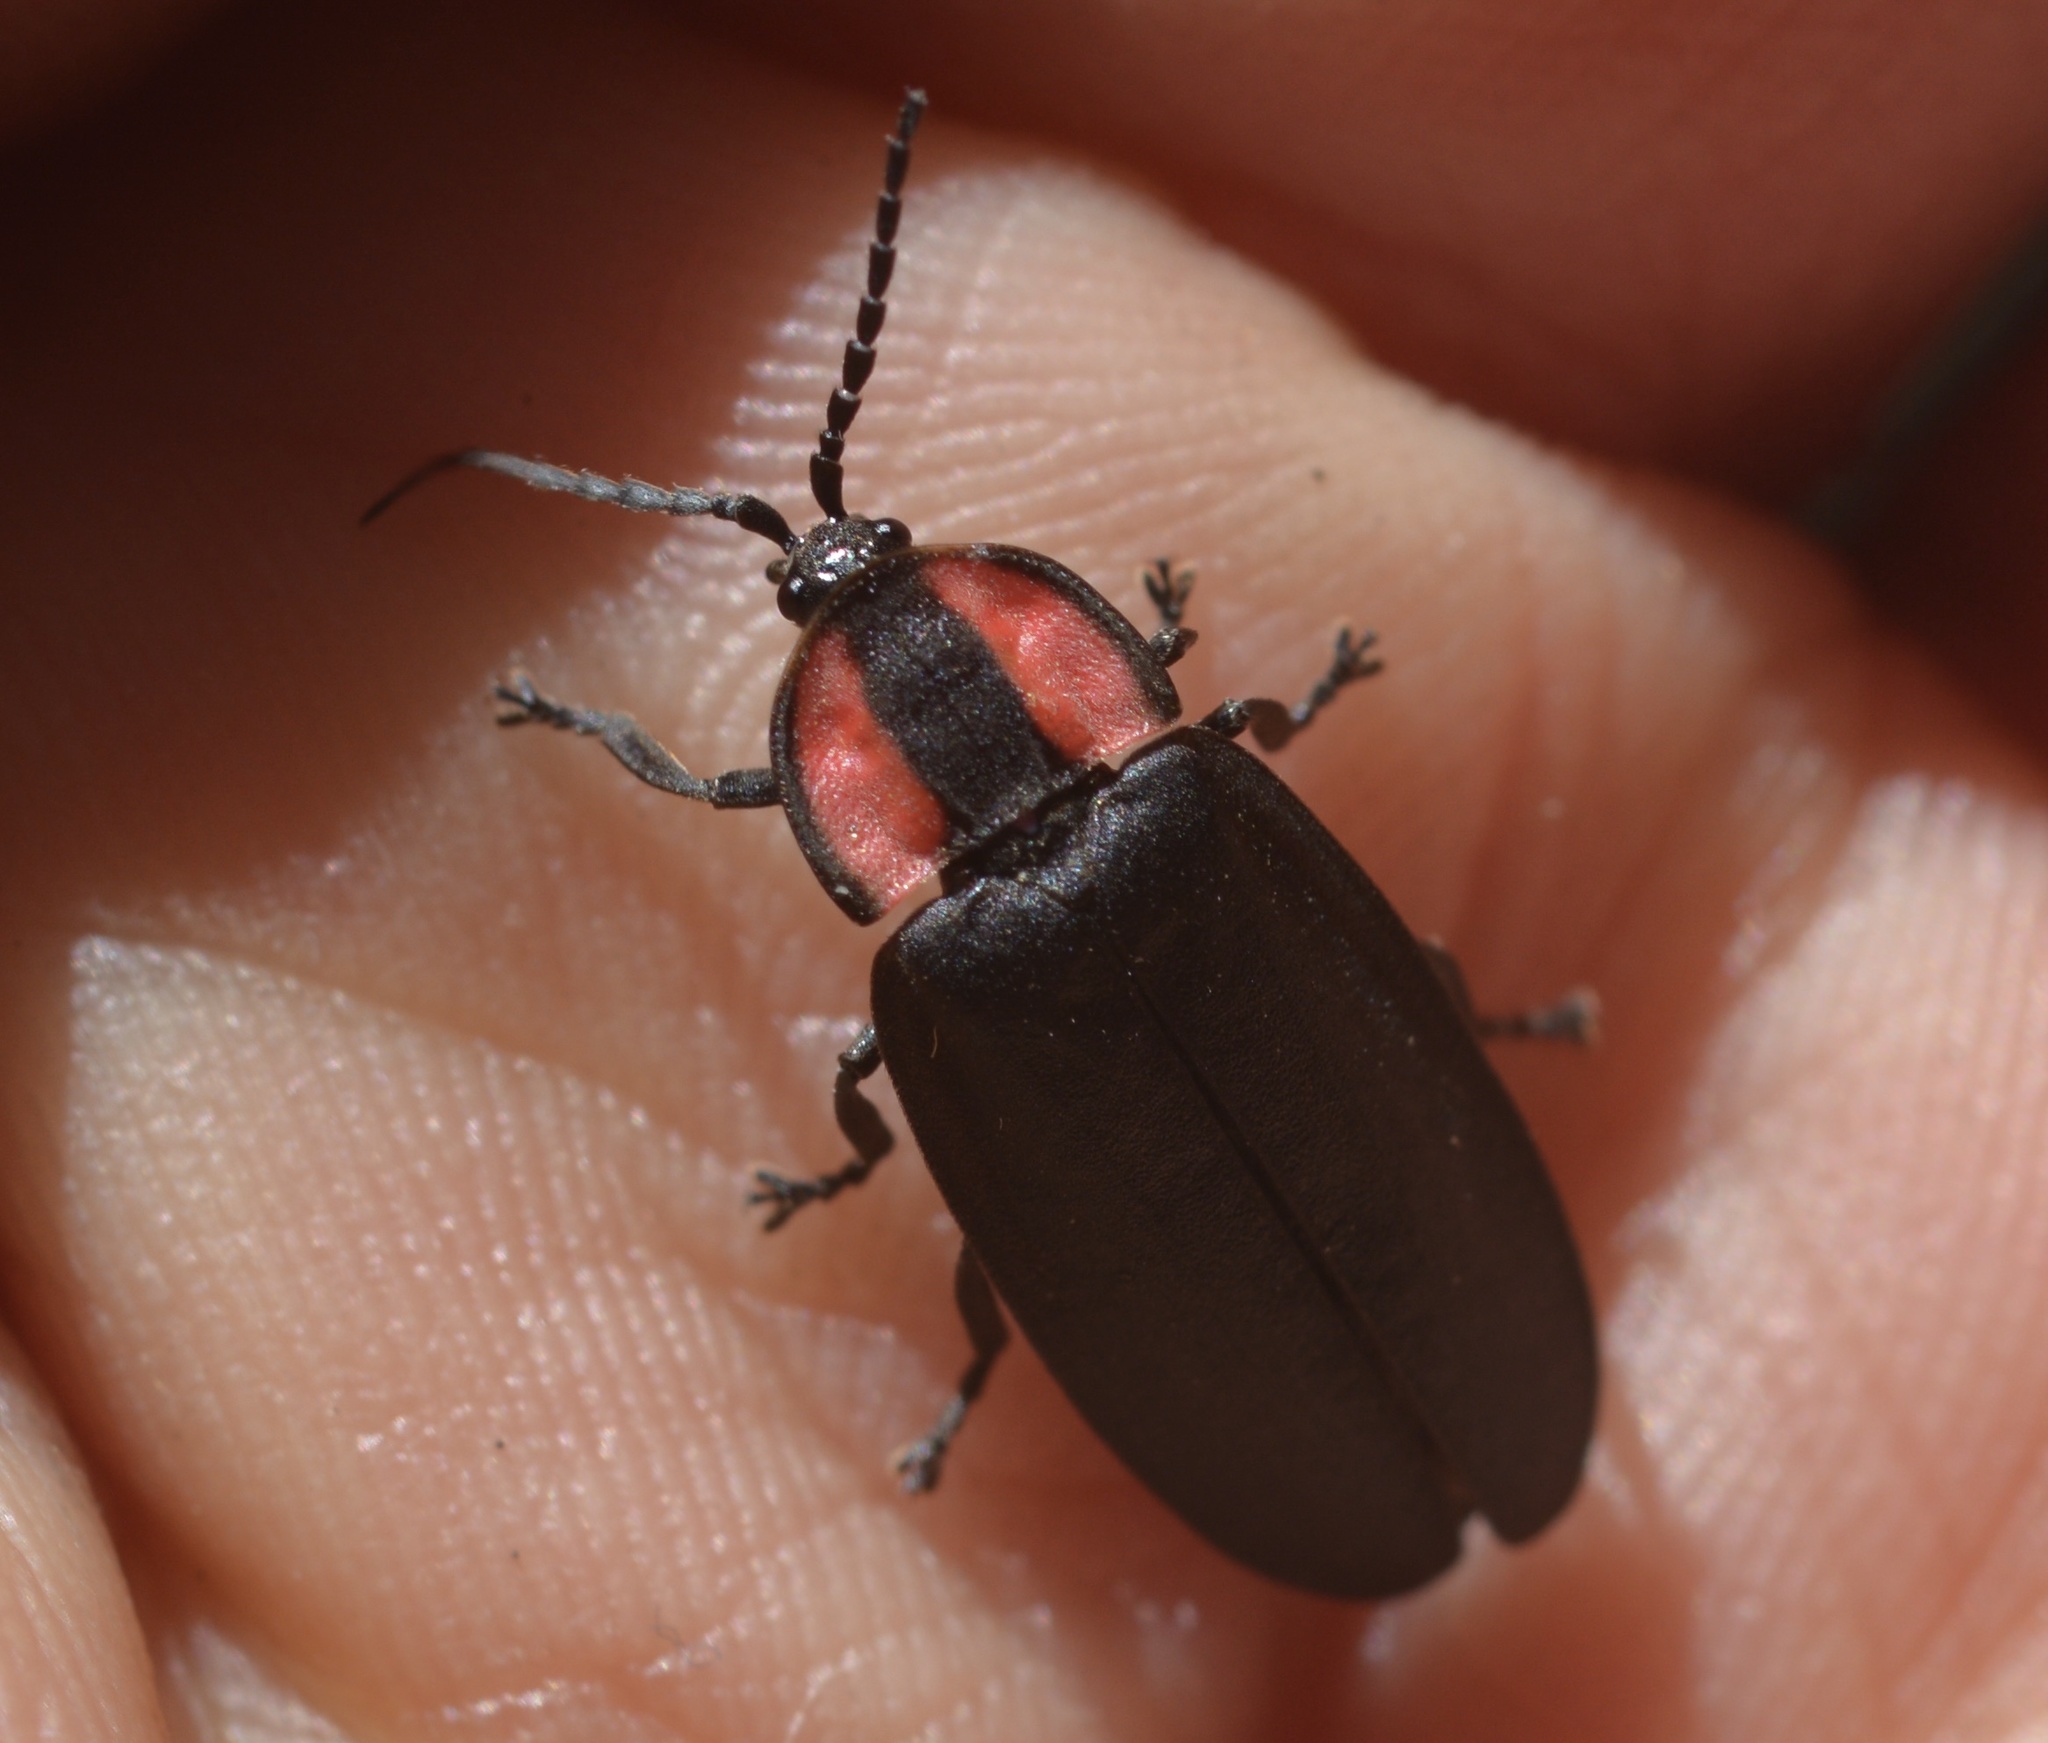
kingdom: Animalia
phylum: Arthropoda
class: Insecta
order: Coleoptera
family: Lampyridae
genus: Ellychnia
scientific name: Ellychnia megista
